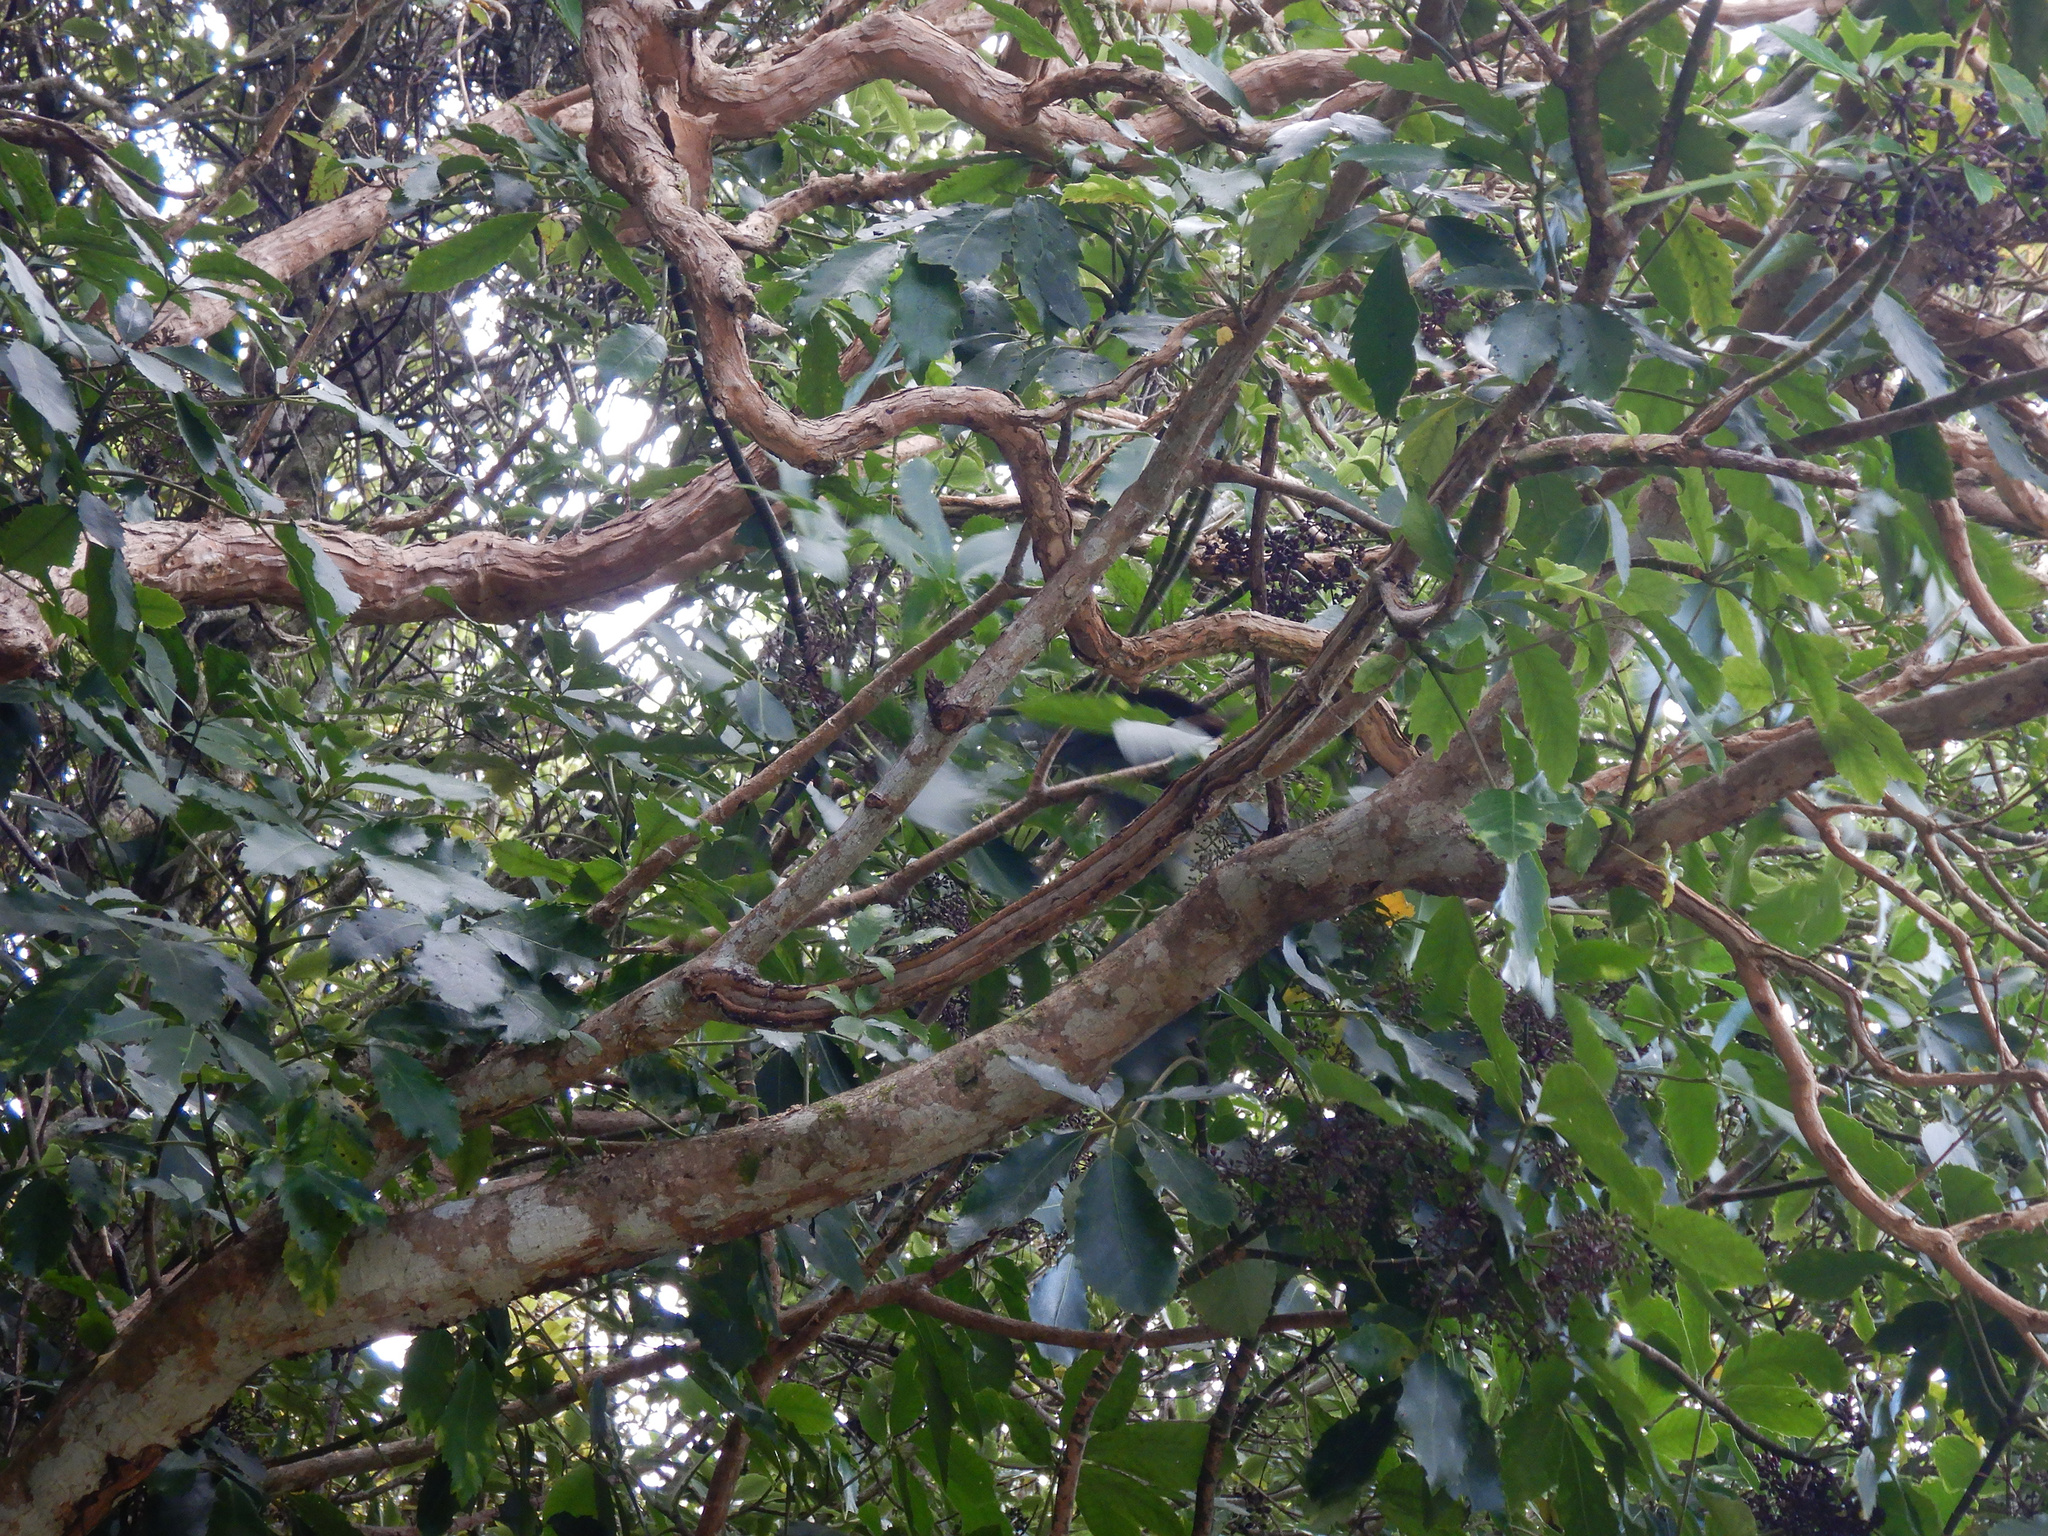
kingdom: Animalia
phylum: Chordata
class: Aves
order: Columbiformes
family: Columbidae
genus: Hemiphaga
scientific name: Hemiphaga novaeseelandiae
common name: New zealand pigeon
